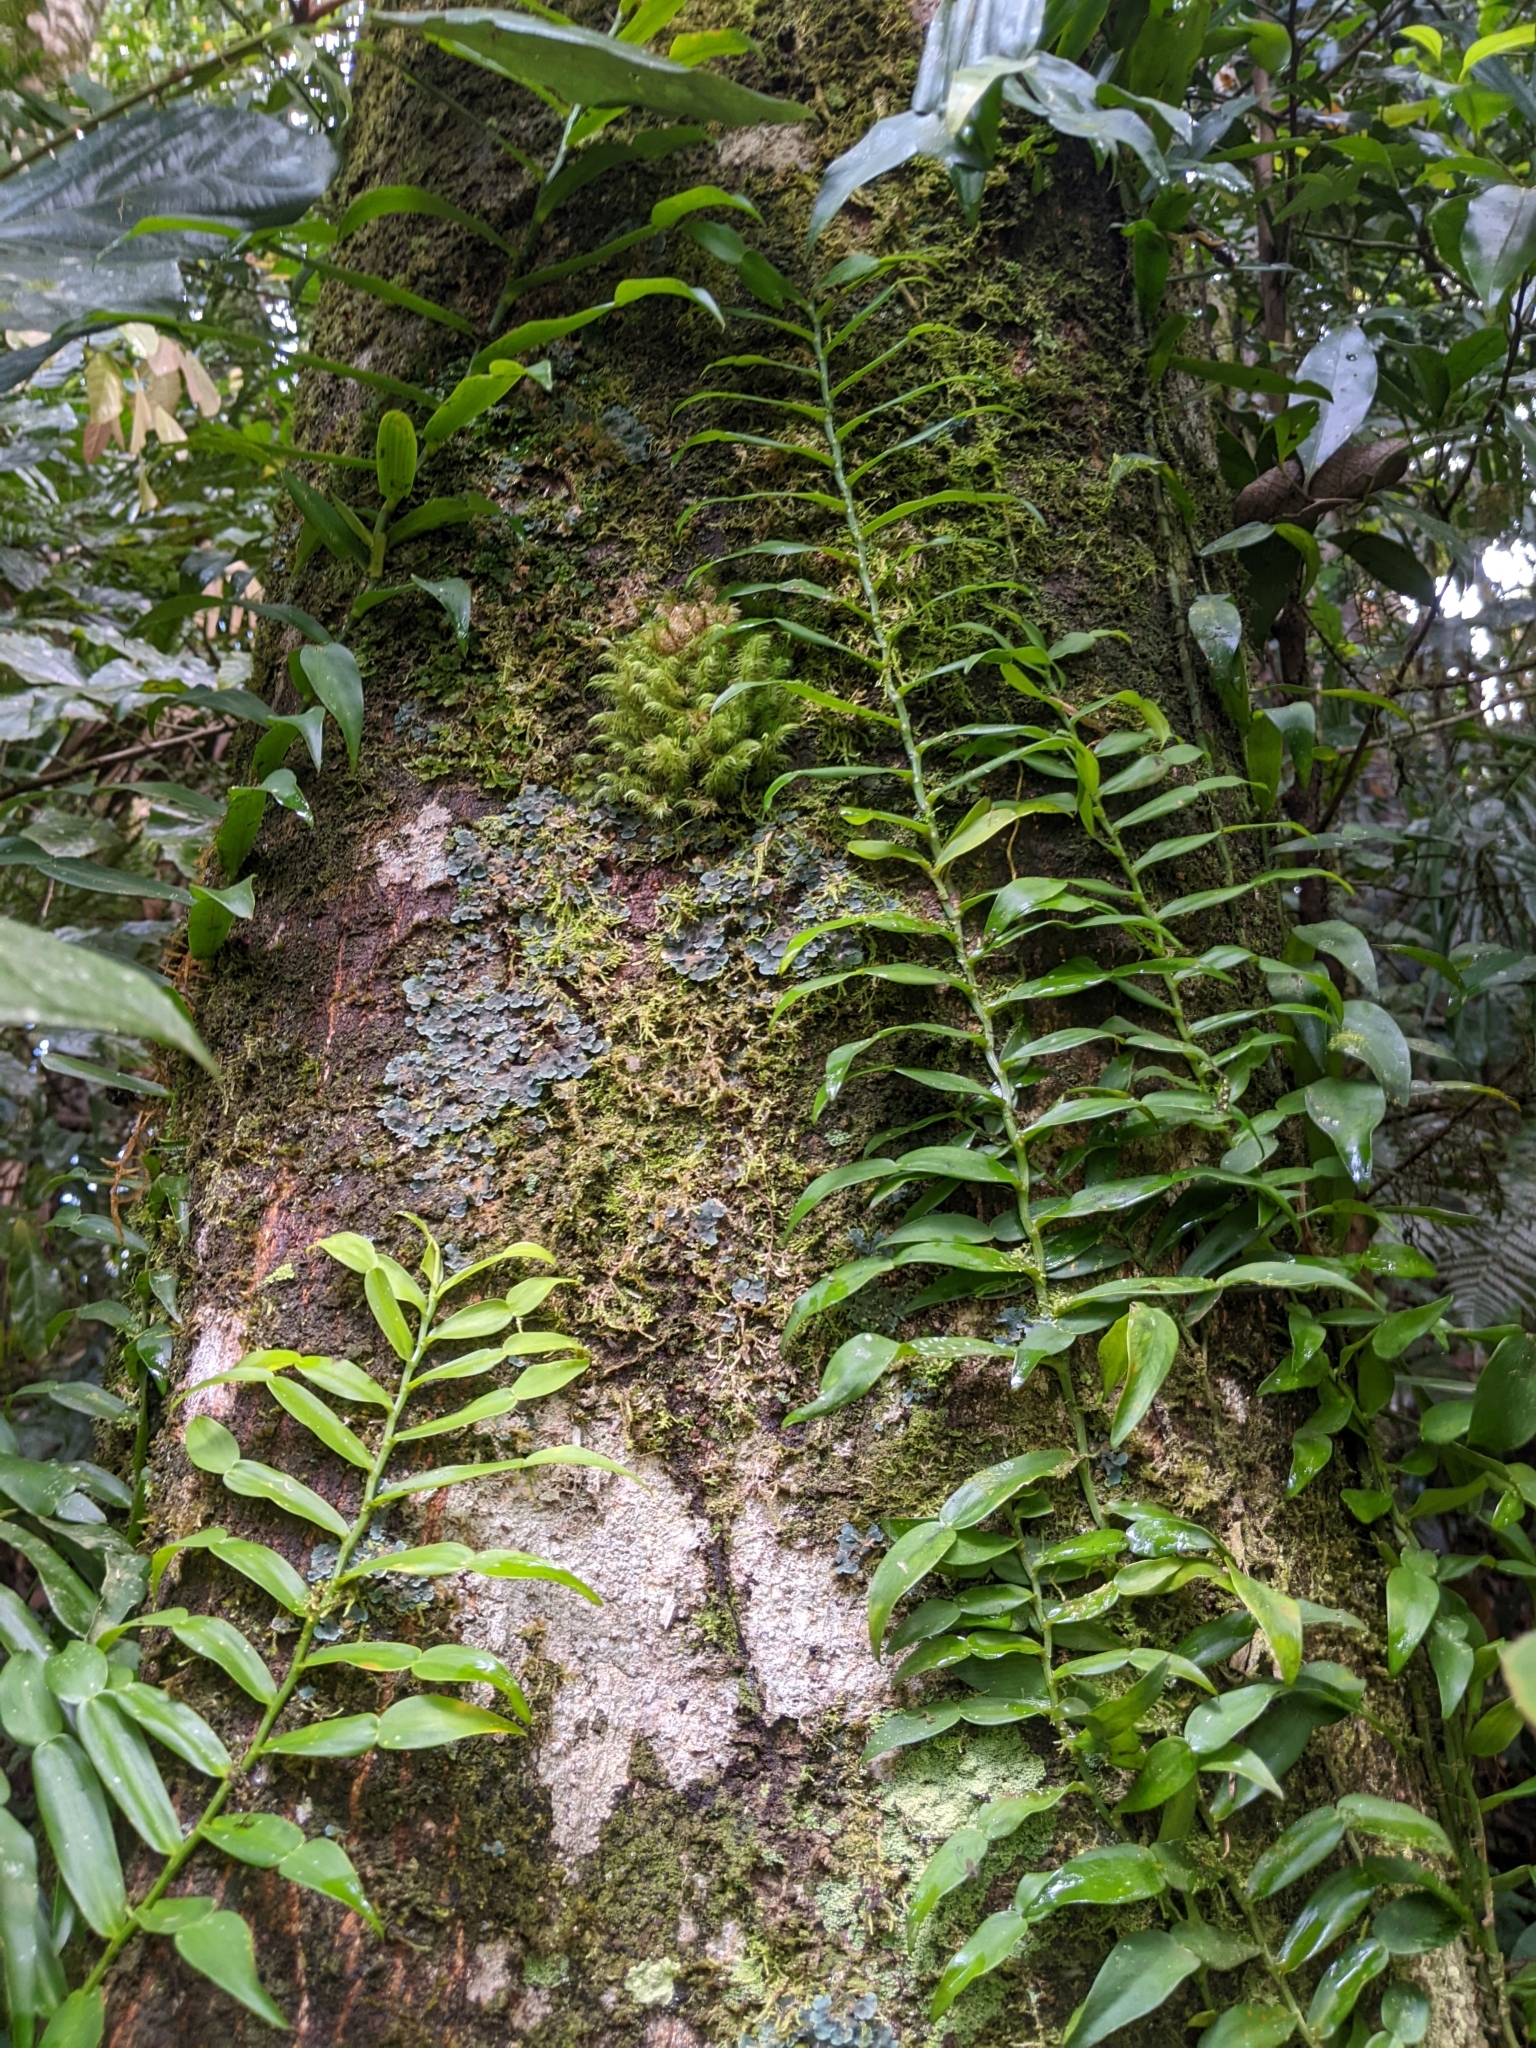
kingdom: Plantae
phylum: Tracheophyta
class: Liliopsida
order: Alismatales
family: Araceae
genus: Pothos
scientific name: Pothos longipes
